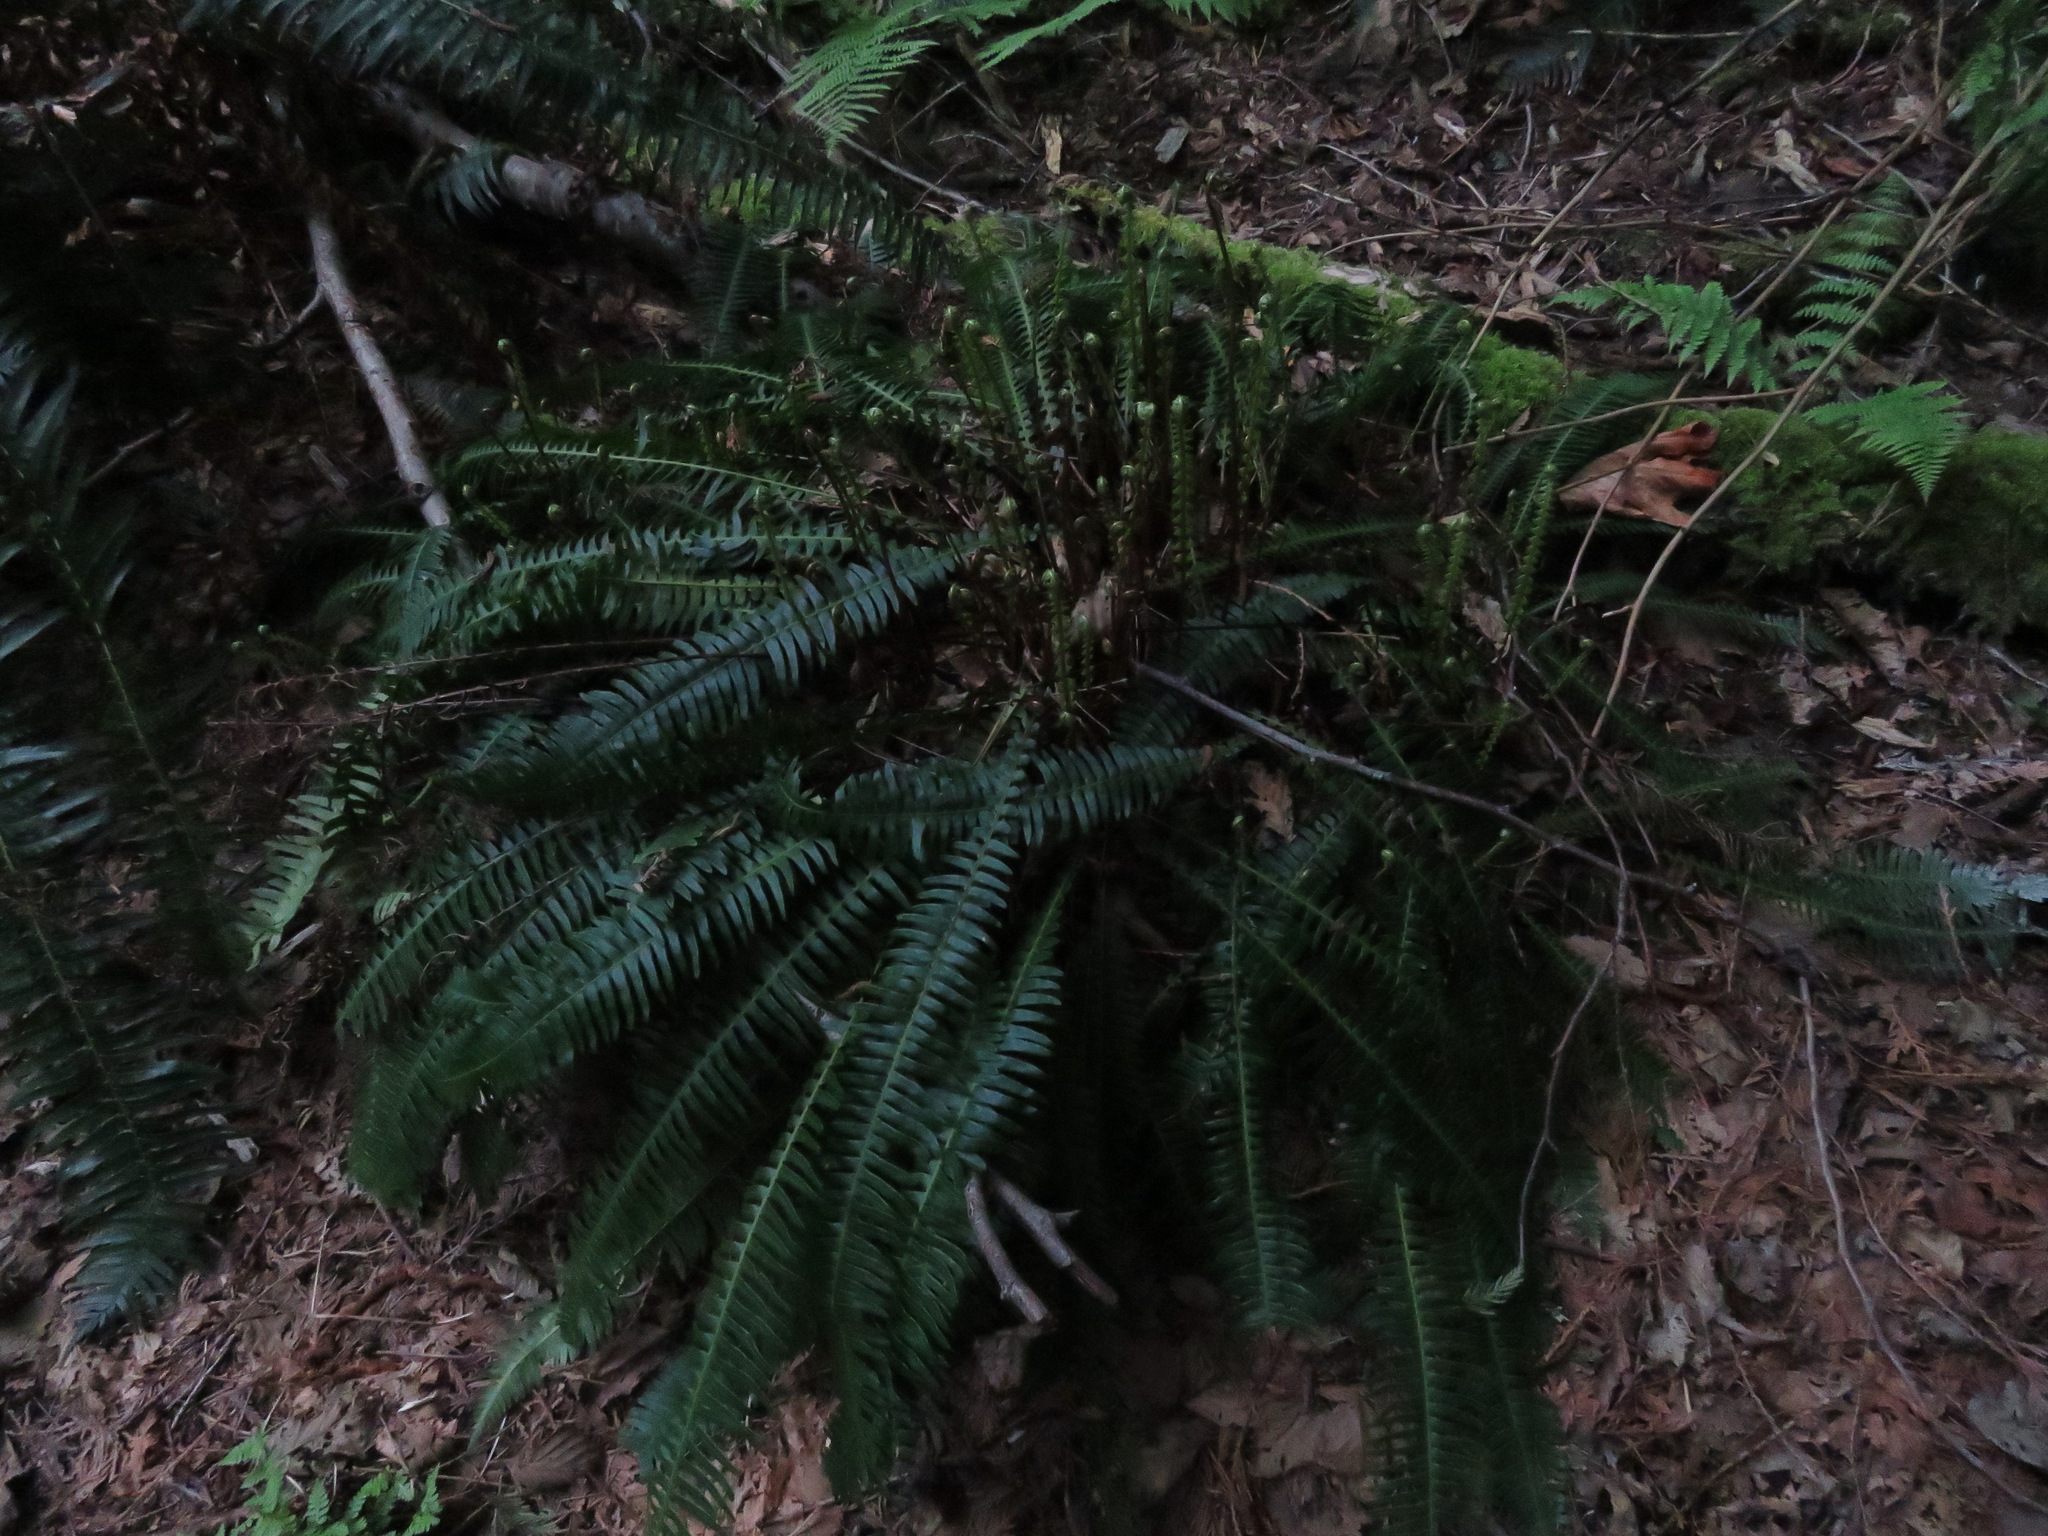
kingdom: Plantae
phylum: Tracheophyta
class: Polypodiopsida
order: Polypodiales
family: Blechnaceae
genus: Struthiopteris
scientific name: Struthiopteris spicant
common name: Deer fern
